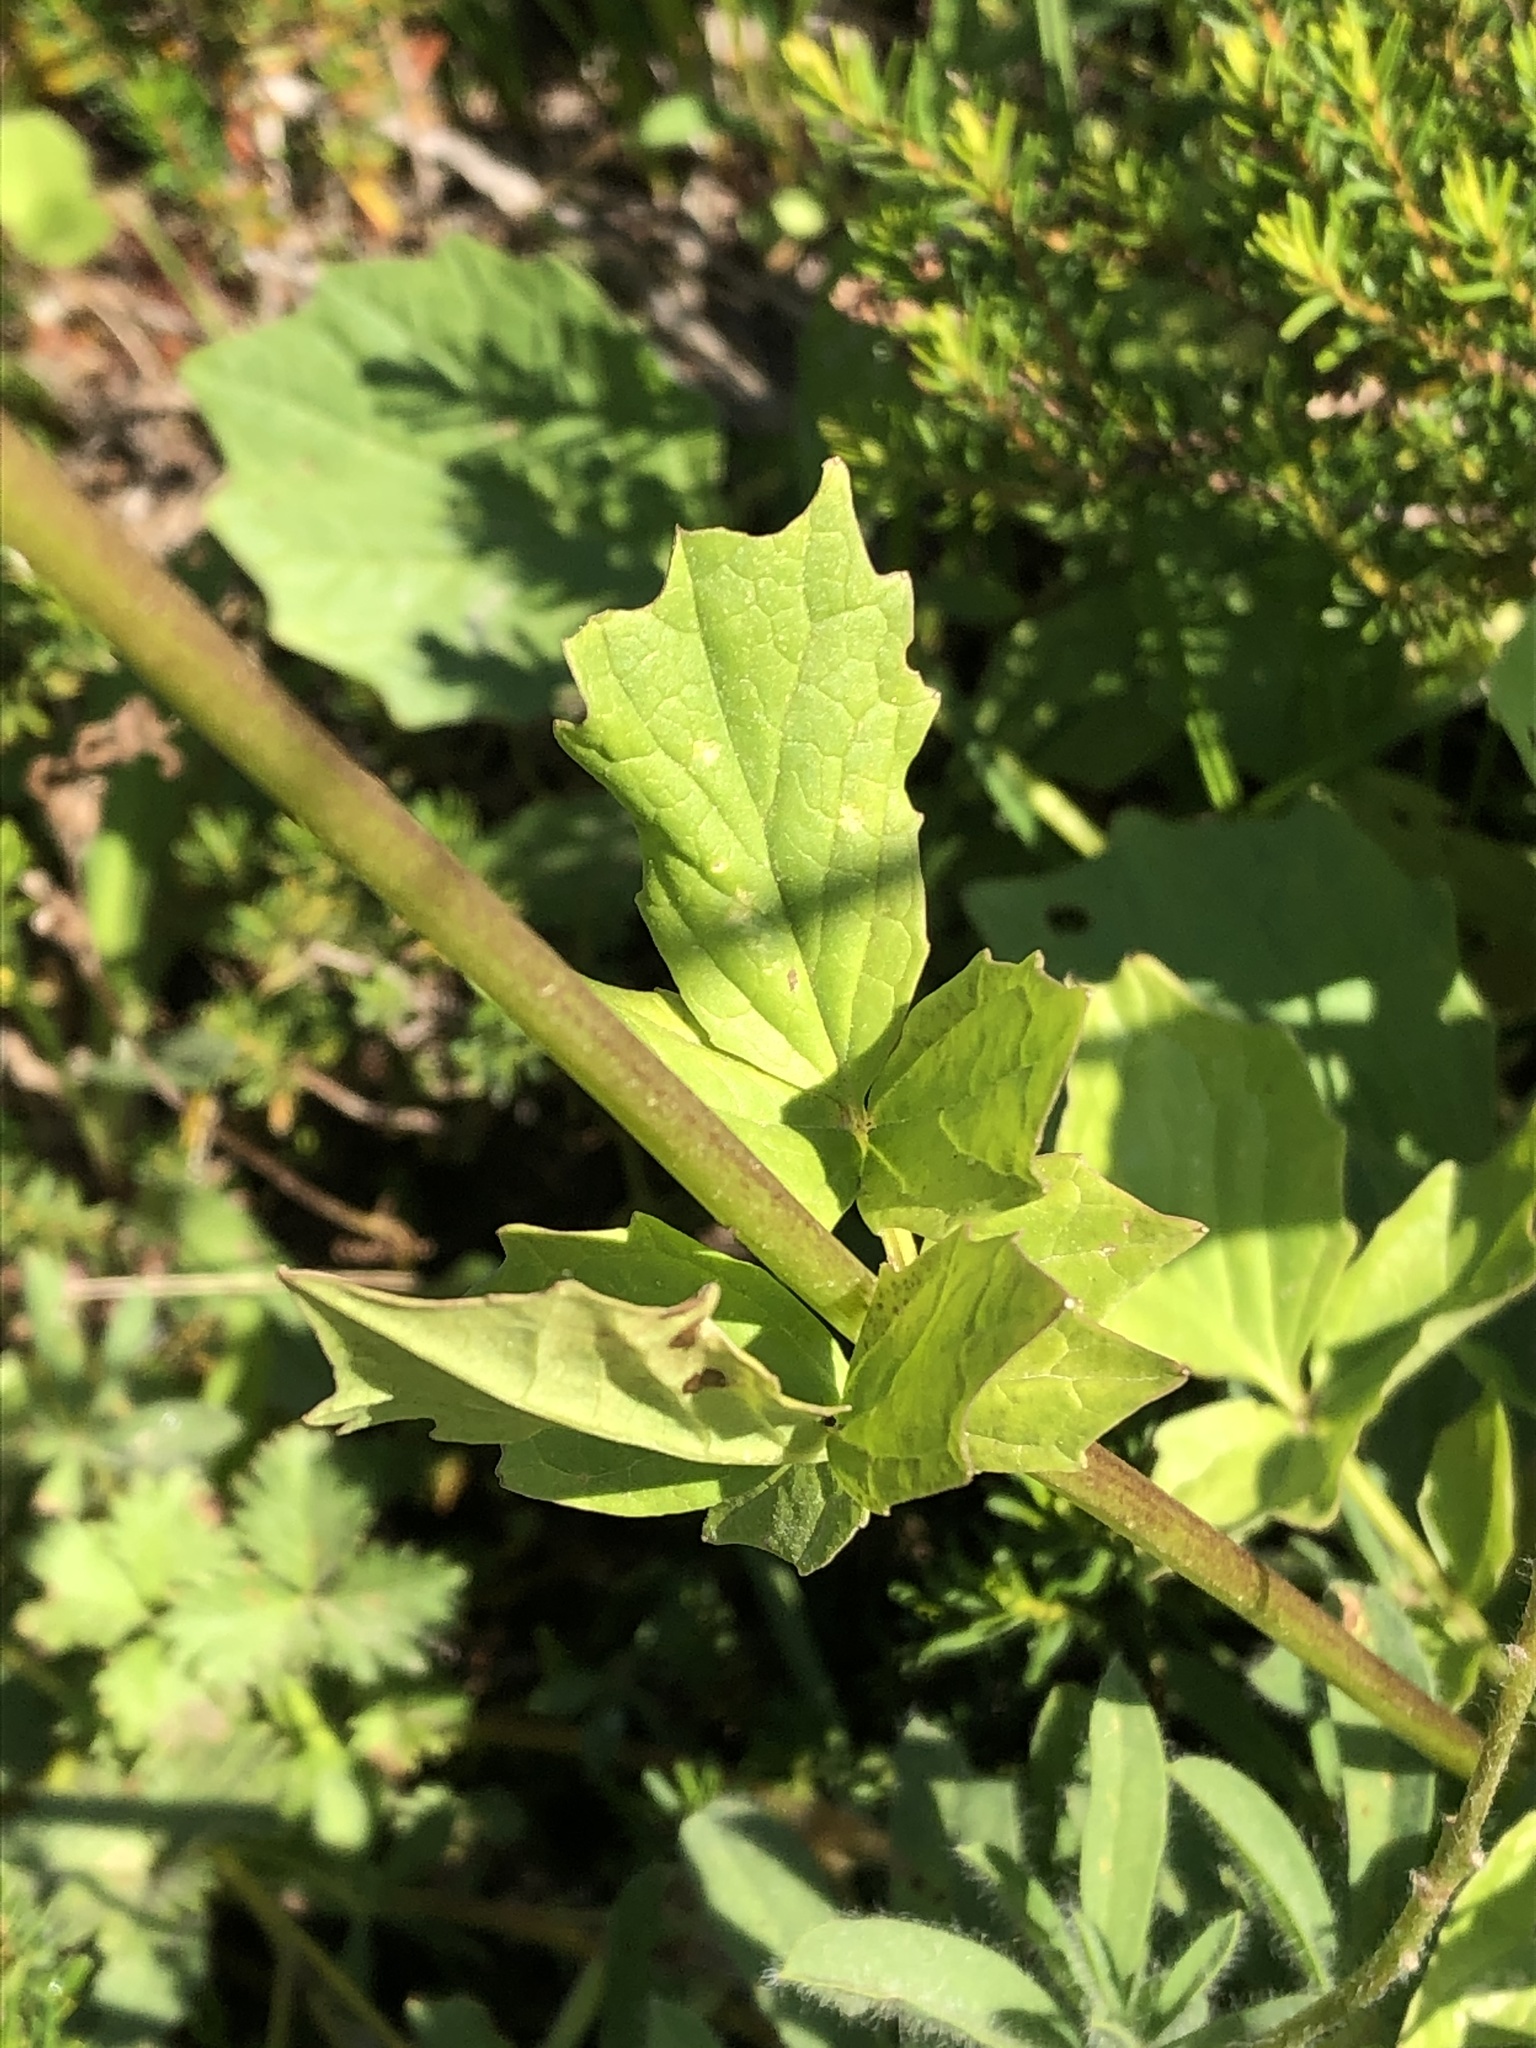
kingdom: Plantae
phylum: Tracheophyta
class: Magnoliopsida
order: Dipsacales
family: Caprifoliaceae
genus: Valeriana
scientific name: Valeriana sitchensis
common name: Pacific valerian
